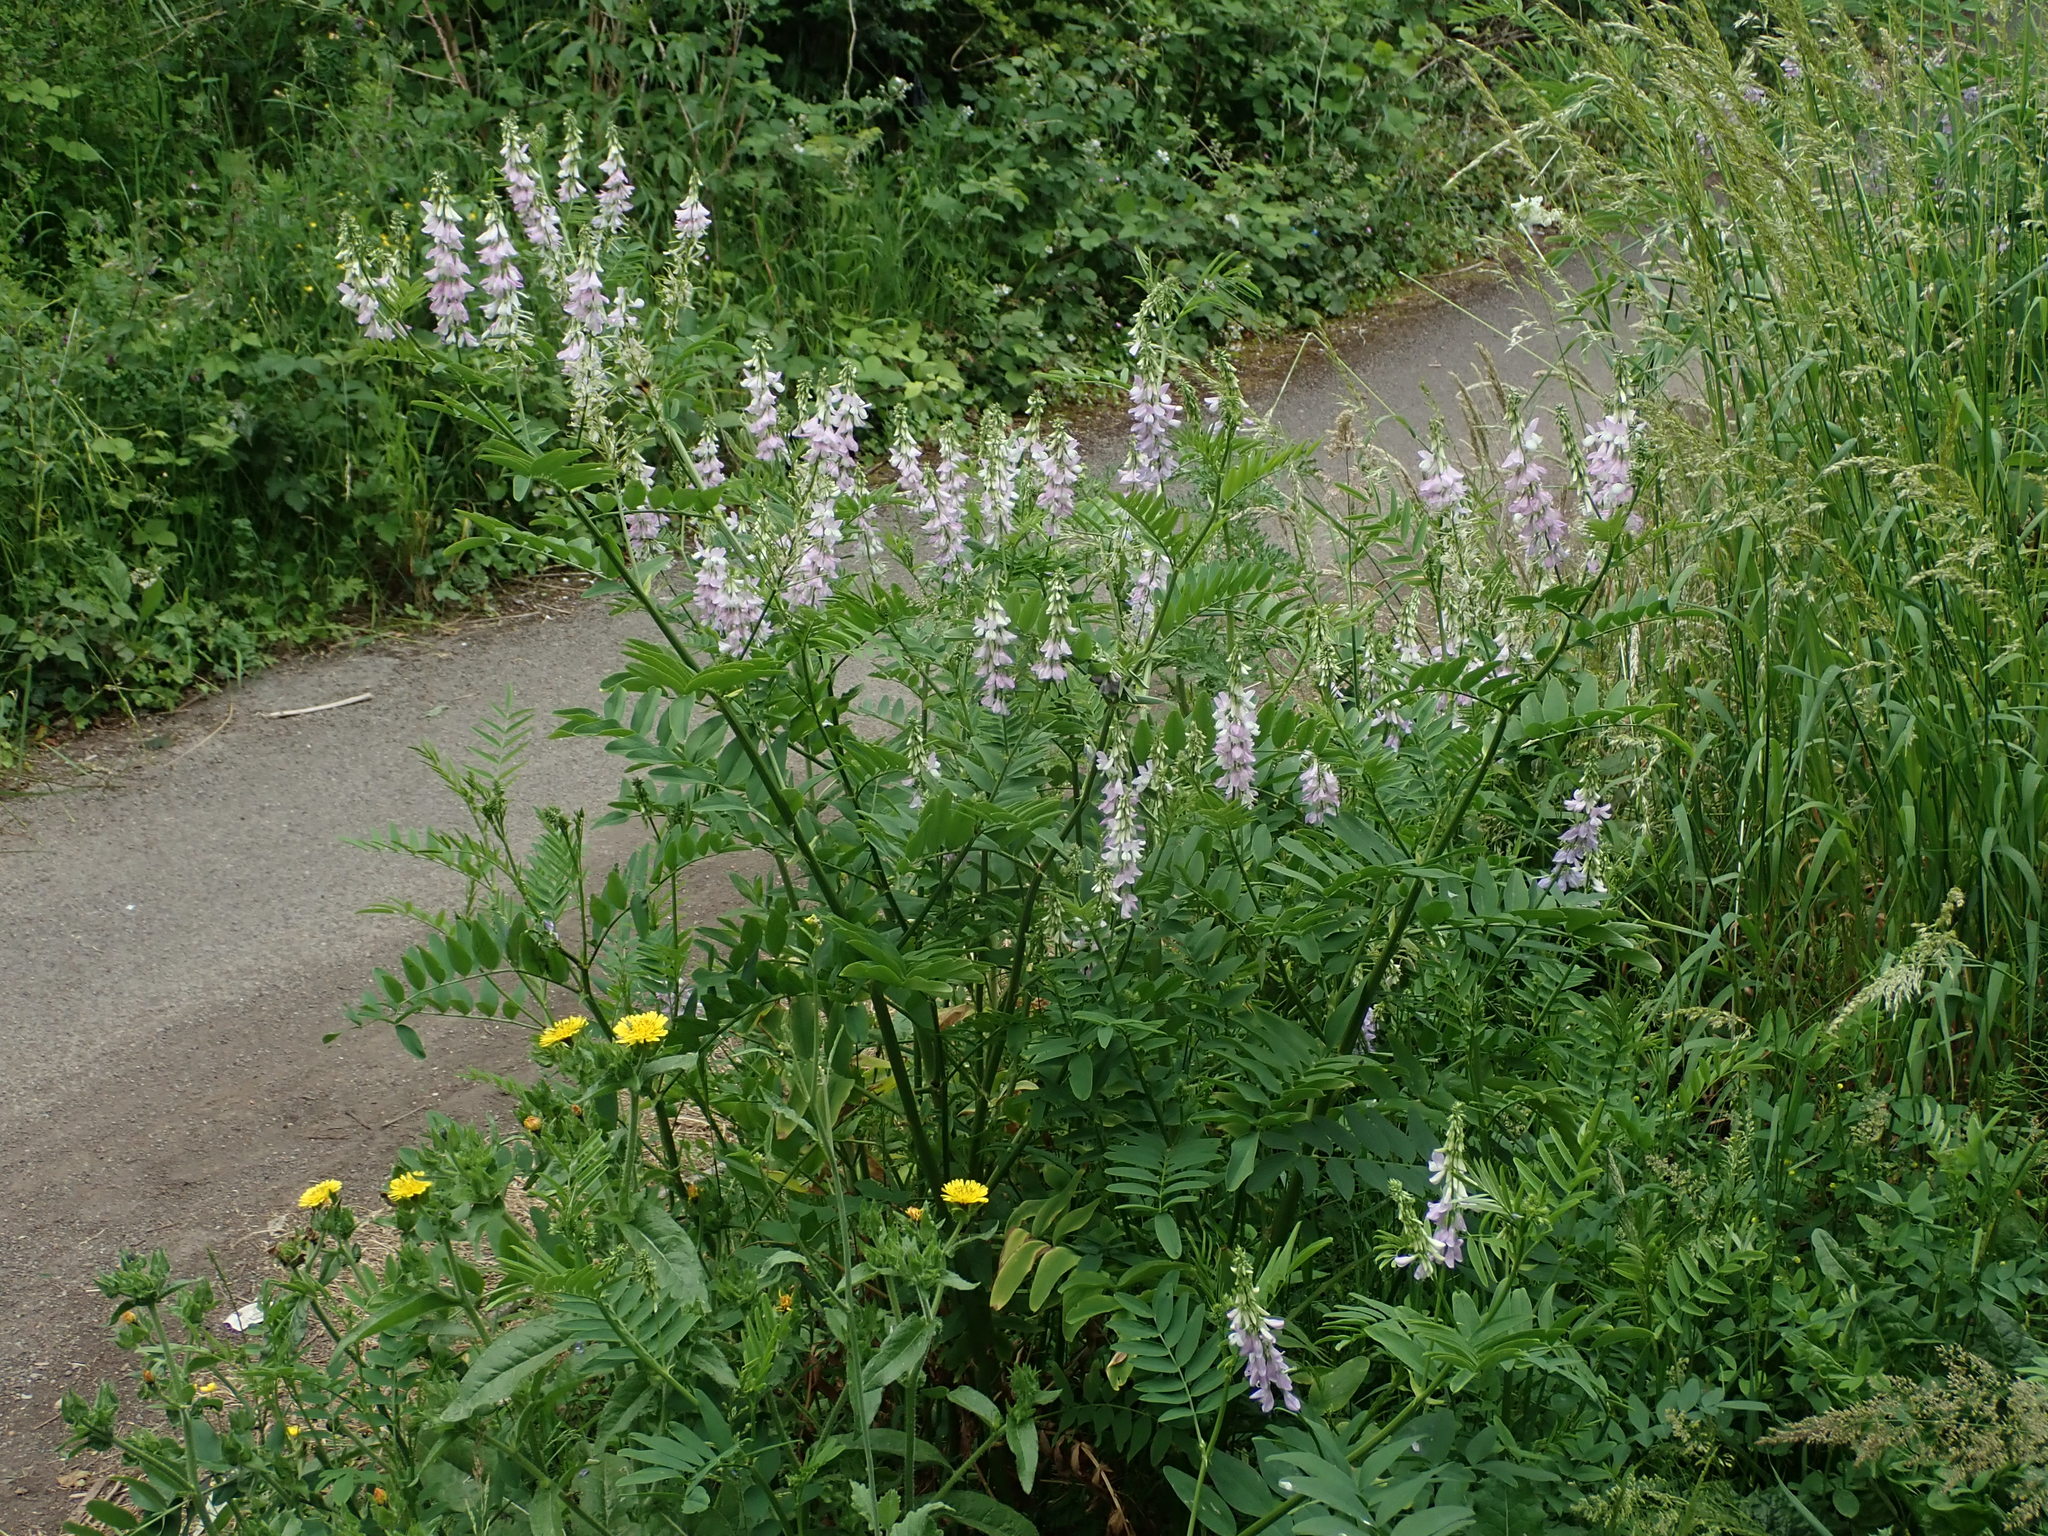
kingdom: Plantae
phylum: Tracheophyta
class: Magnoliopsida
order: Fabales
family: Fabaceae
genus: Galega
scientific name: Galega officinalis
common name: Goat's-rue
